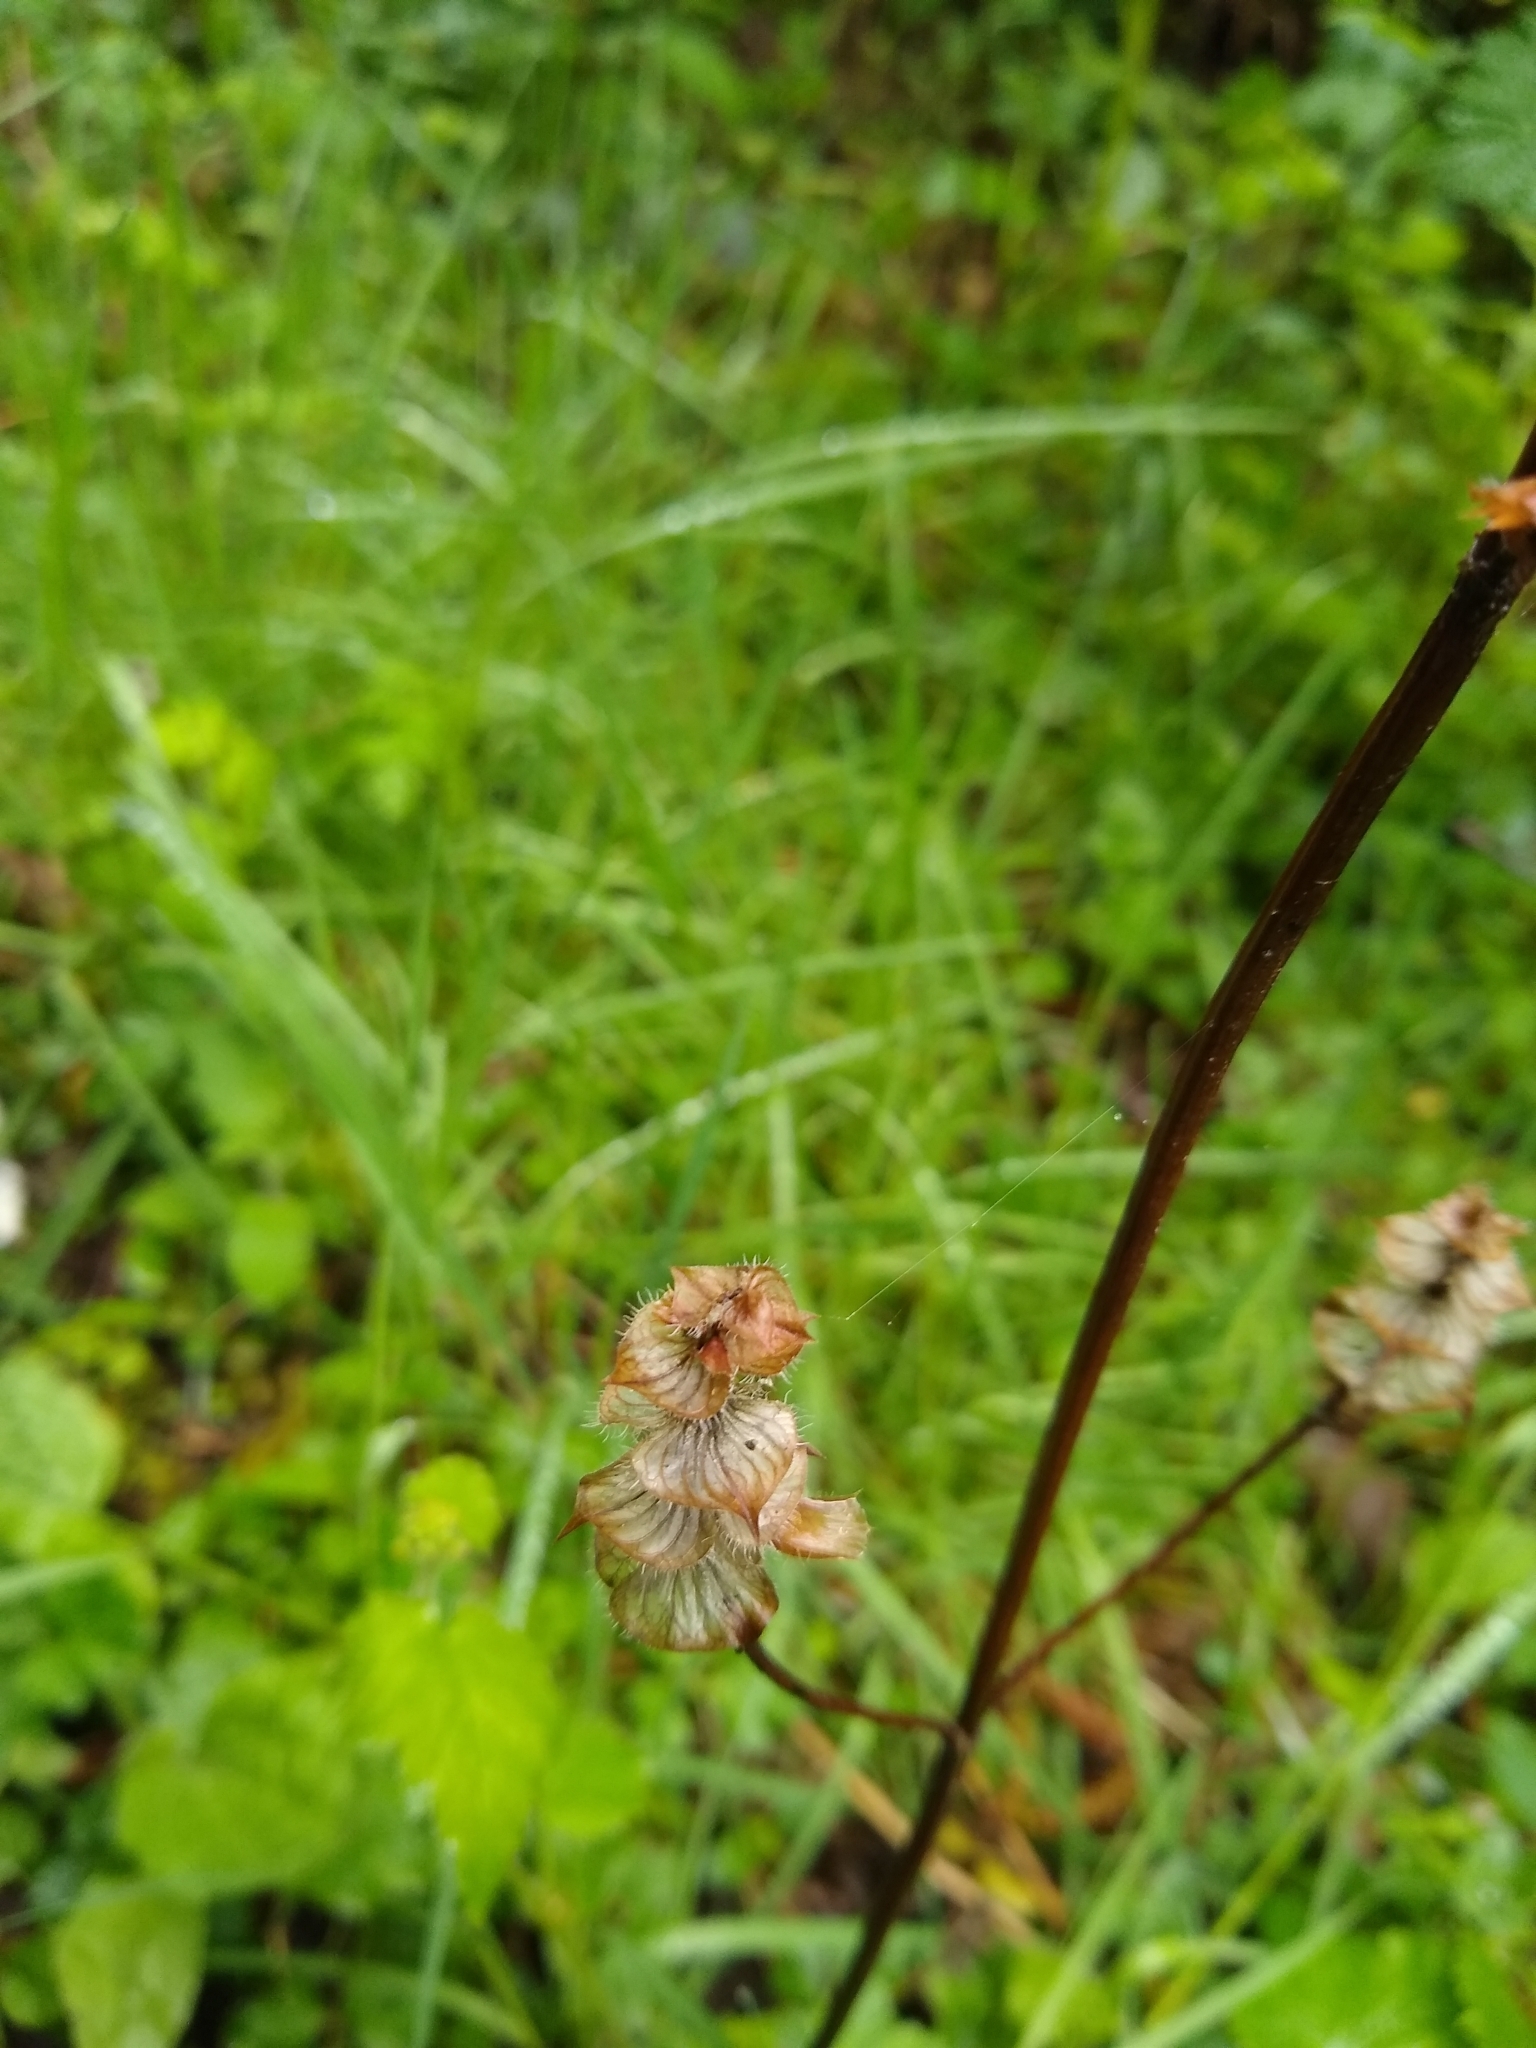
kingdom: Plantae
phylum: Tracheophyta
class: Magnoliopsida
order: Lamiales
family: Lamiaceae
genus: Prunella
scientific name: Prunella vulgaris
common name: Heal-all
